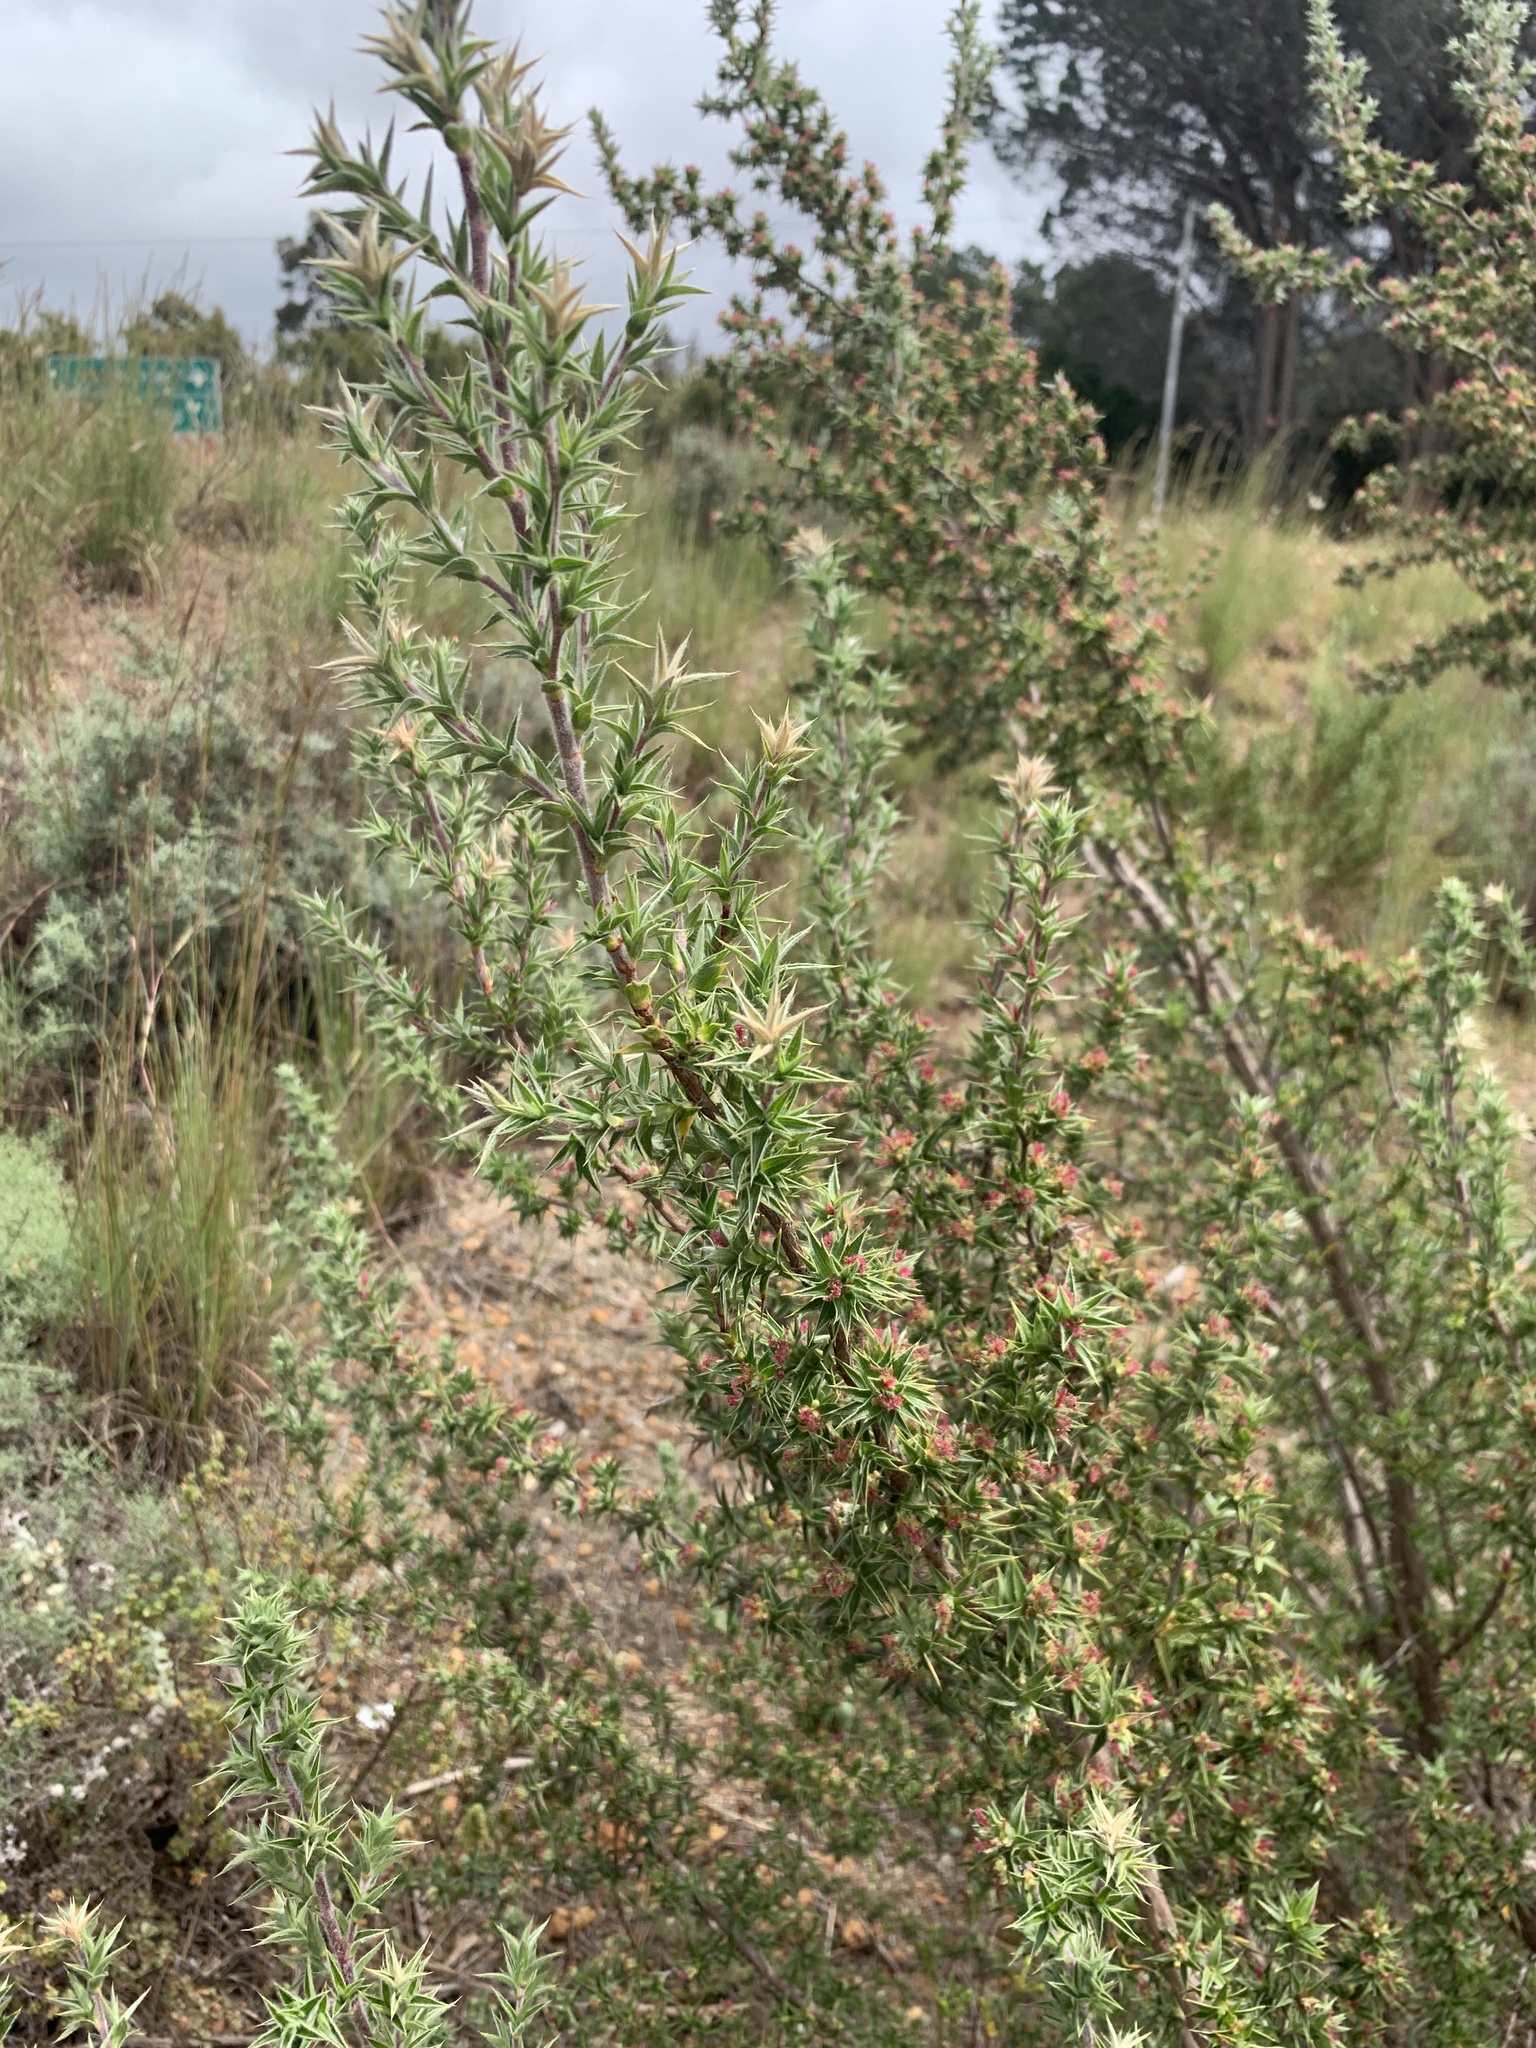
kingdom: Plantae
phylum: Tracheophyta
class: Magnoliopsida
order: Rosales
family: Rosaceae
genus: Cliffortia
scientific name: Cliffortia ruscifolia
